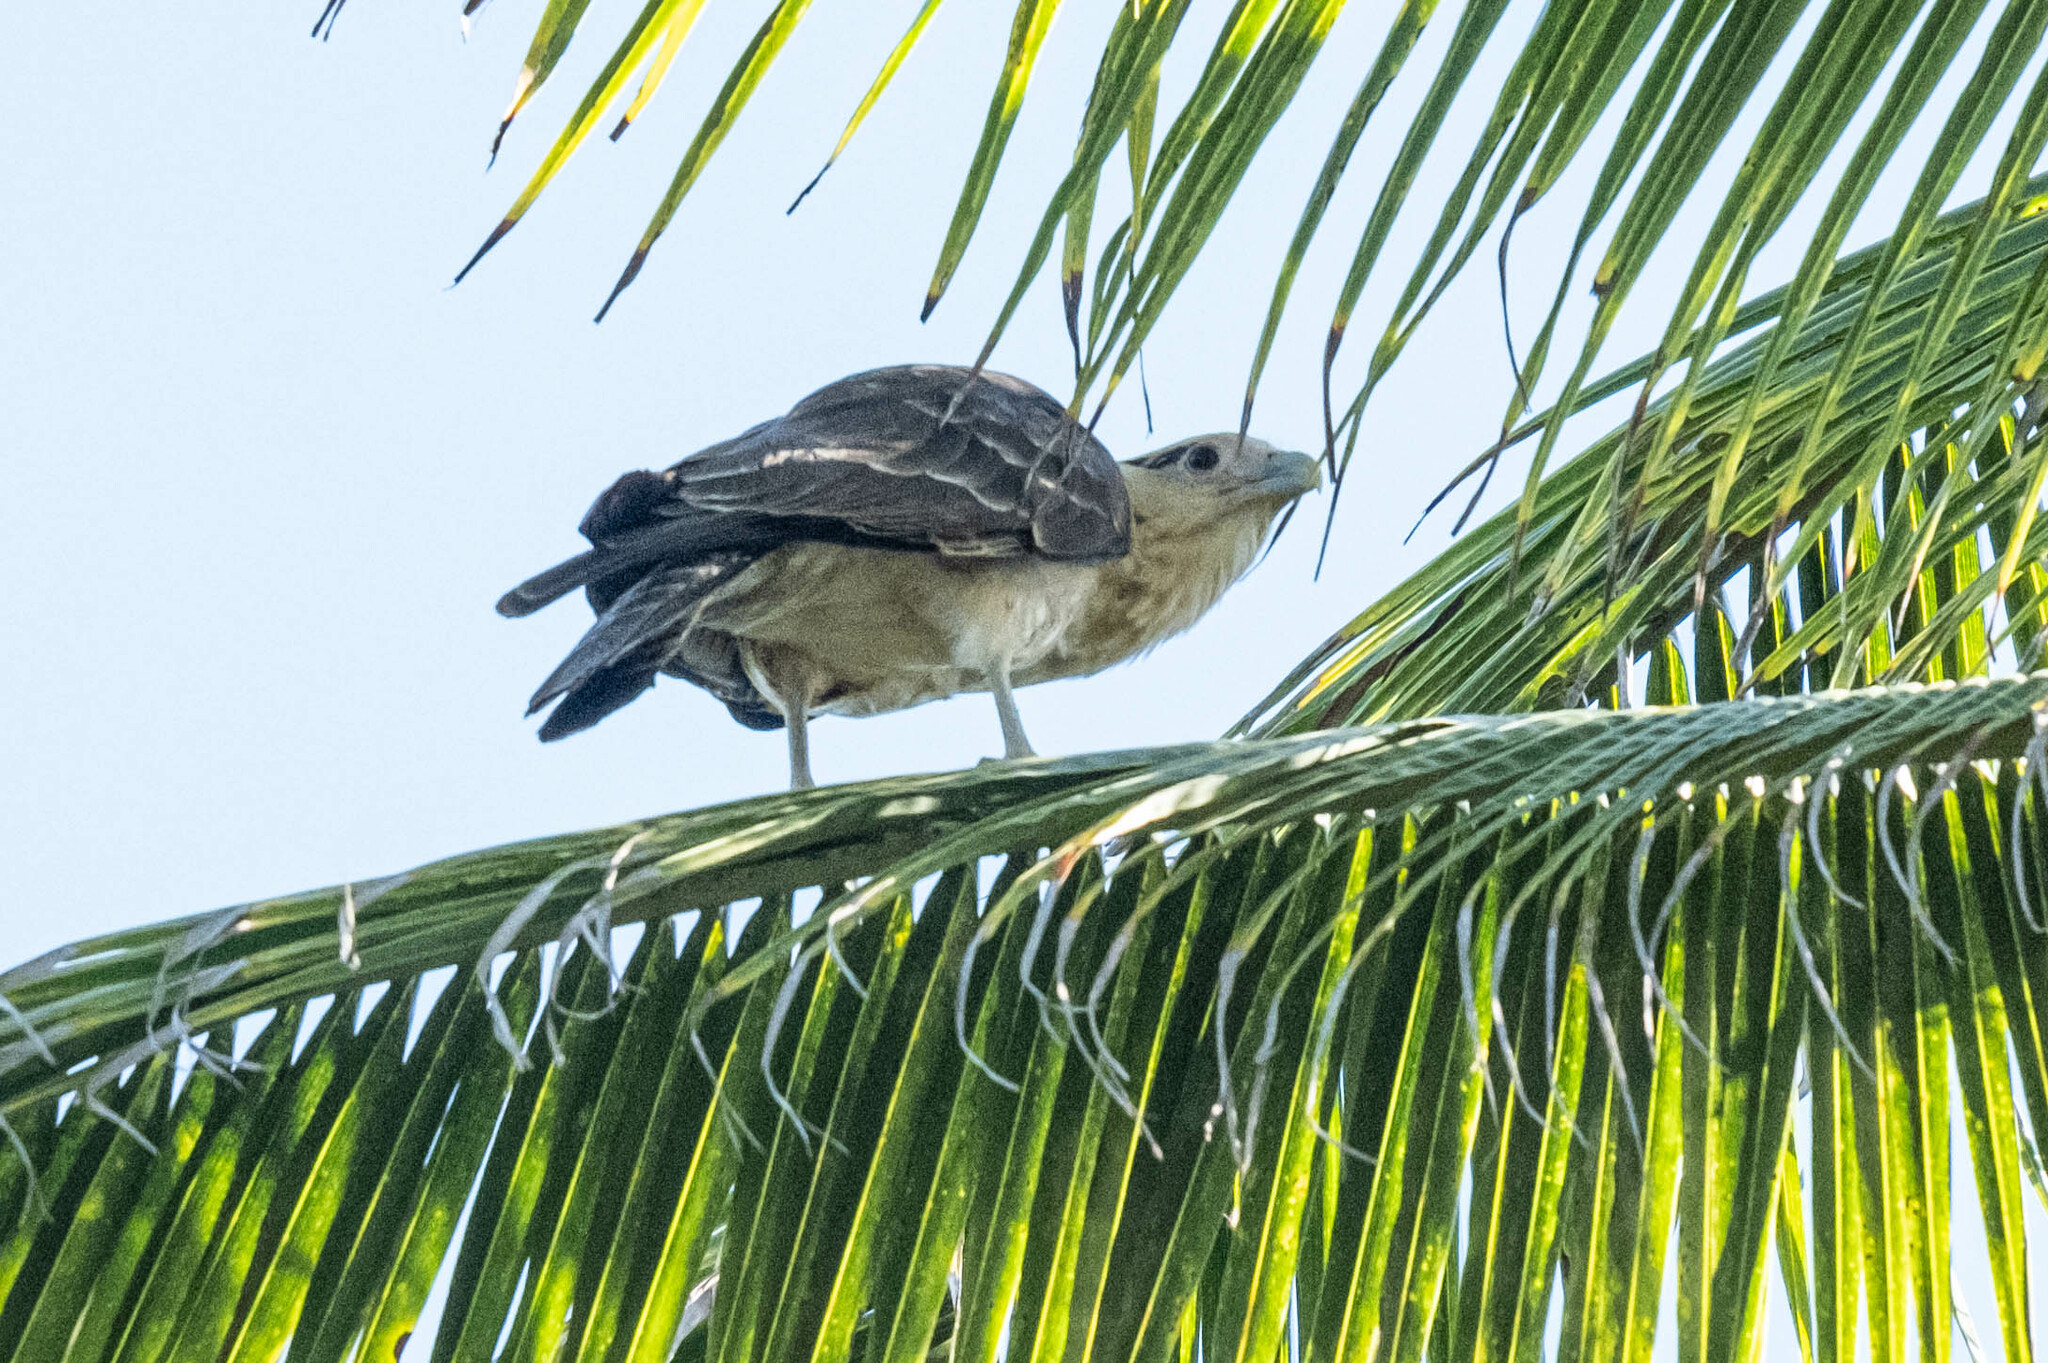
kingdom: Animalia
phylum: Chordata
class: Aves
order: Falconiformes
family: Falconidae
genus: Daptrius
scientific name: Daptrius
